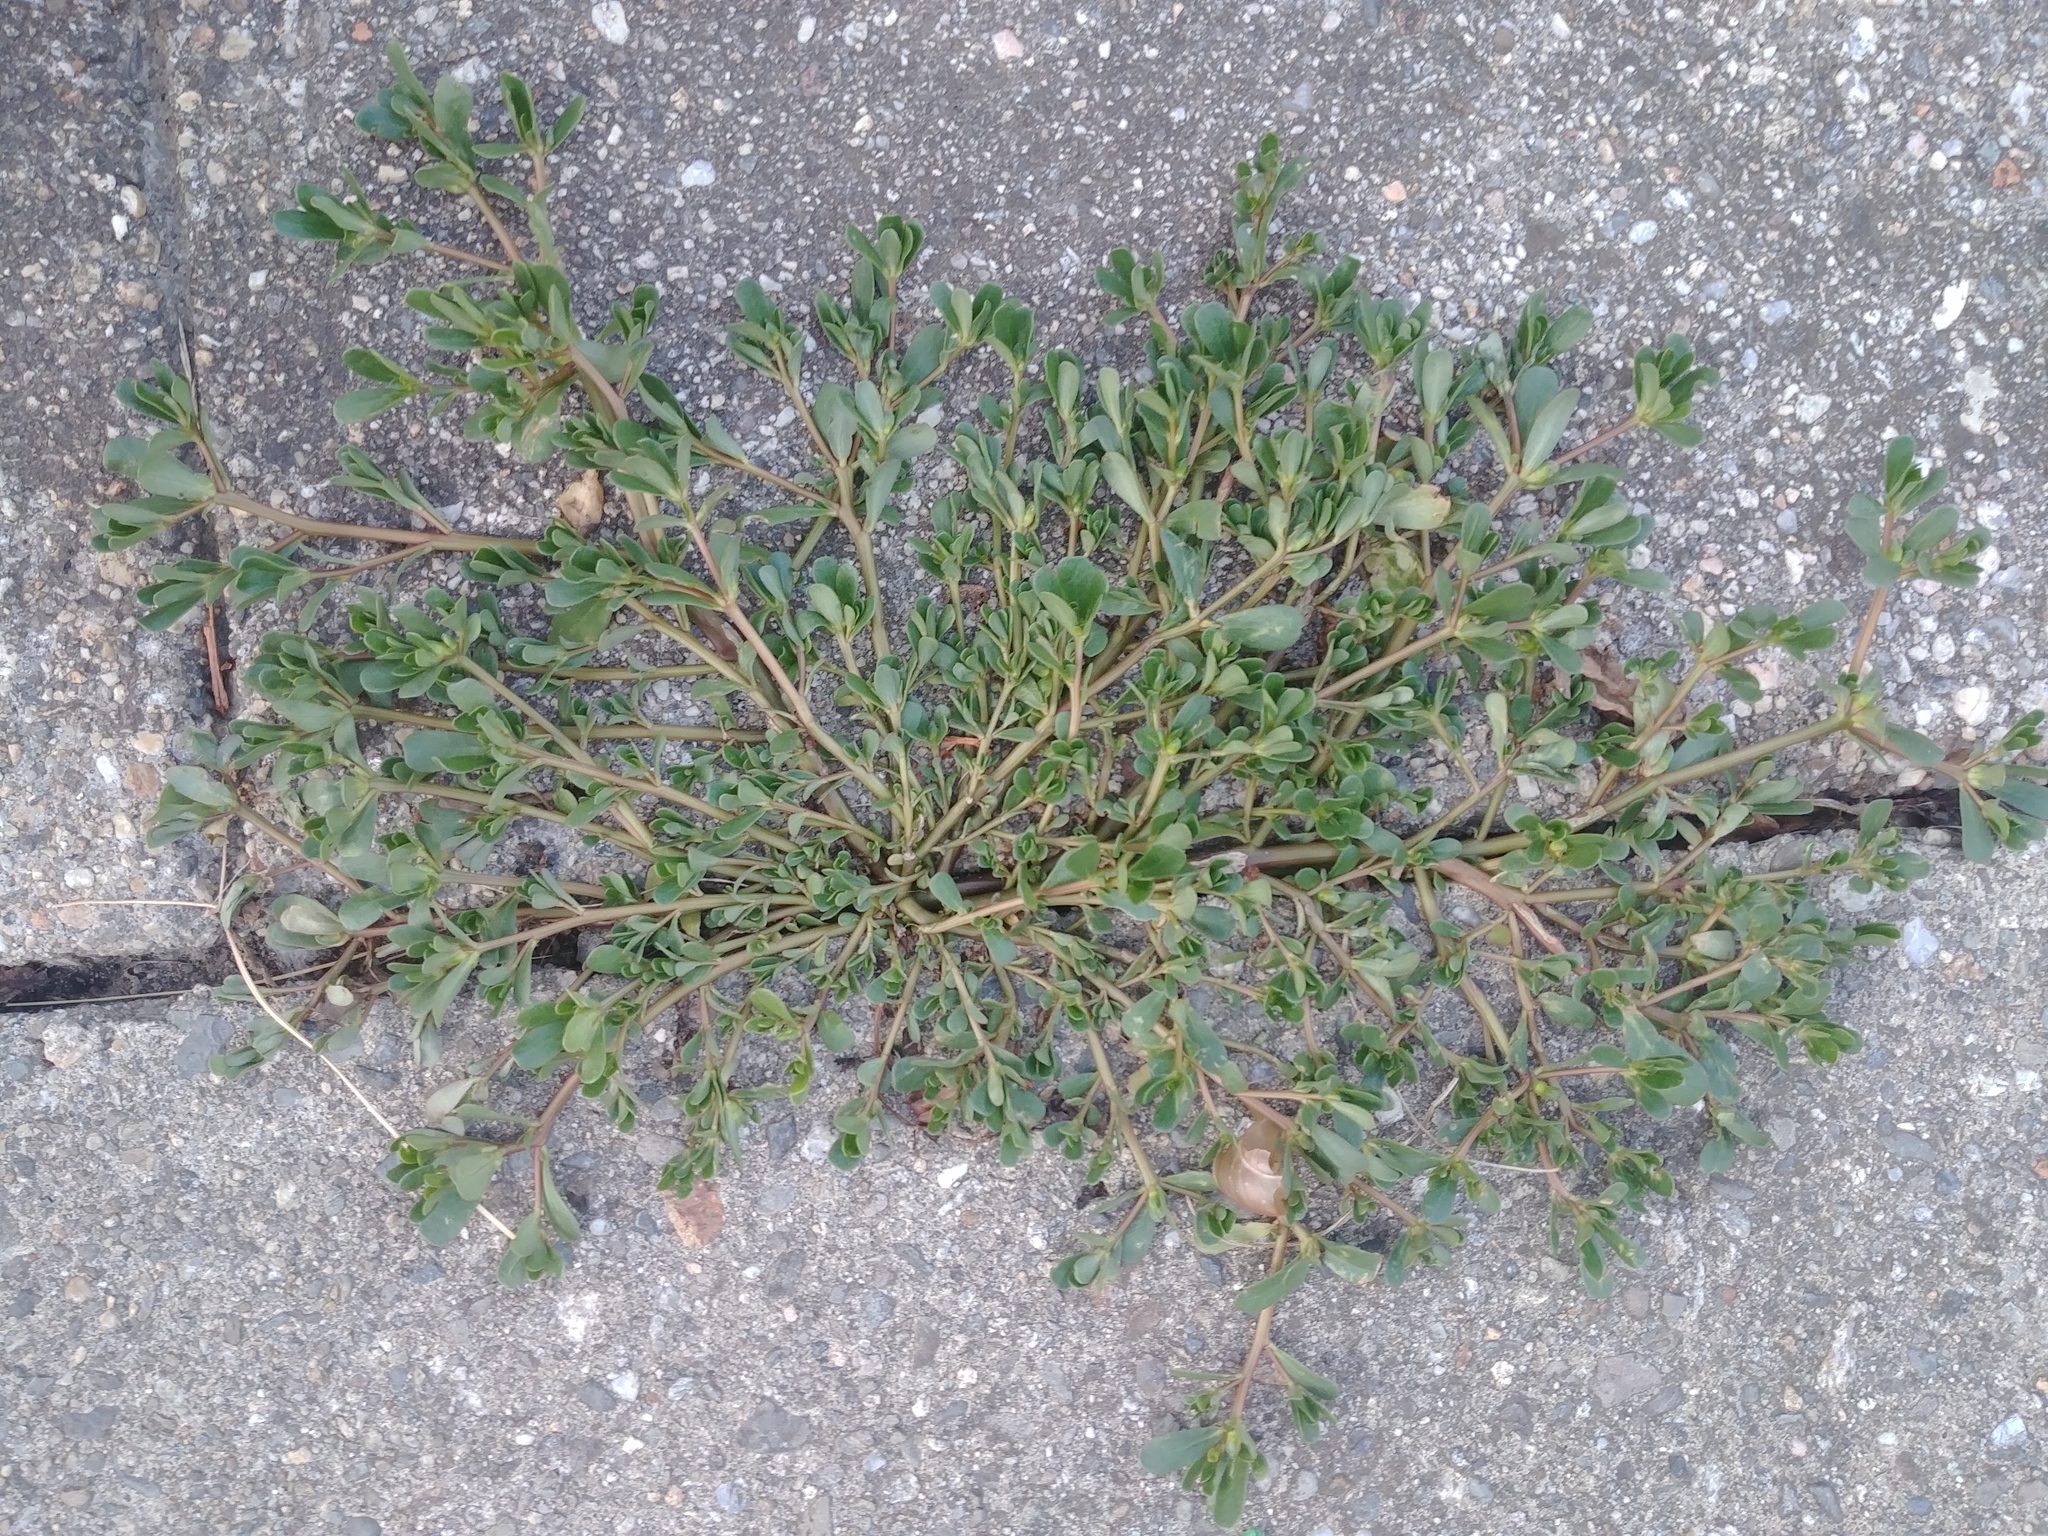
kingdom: Plantae
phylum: Tracheophyta
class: Magnoliopsida
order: Caryophyllales
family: Portulacaceae
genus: Portulaca
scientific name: Portulaca oleracea
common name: Common purslane
